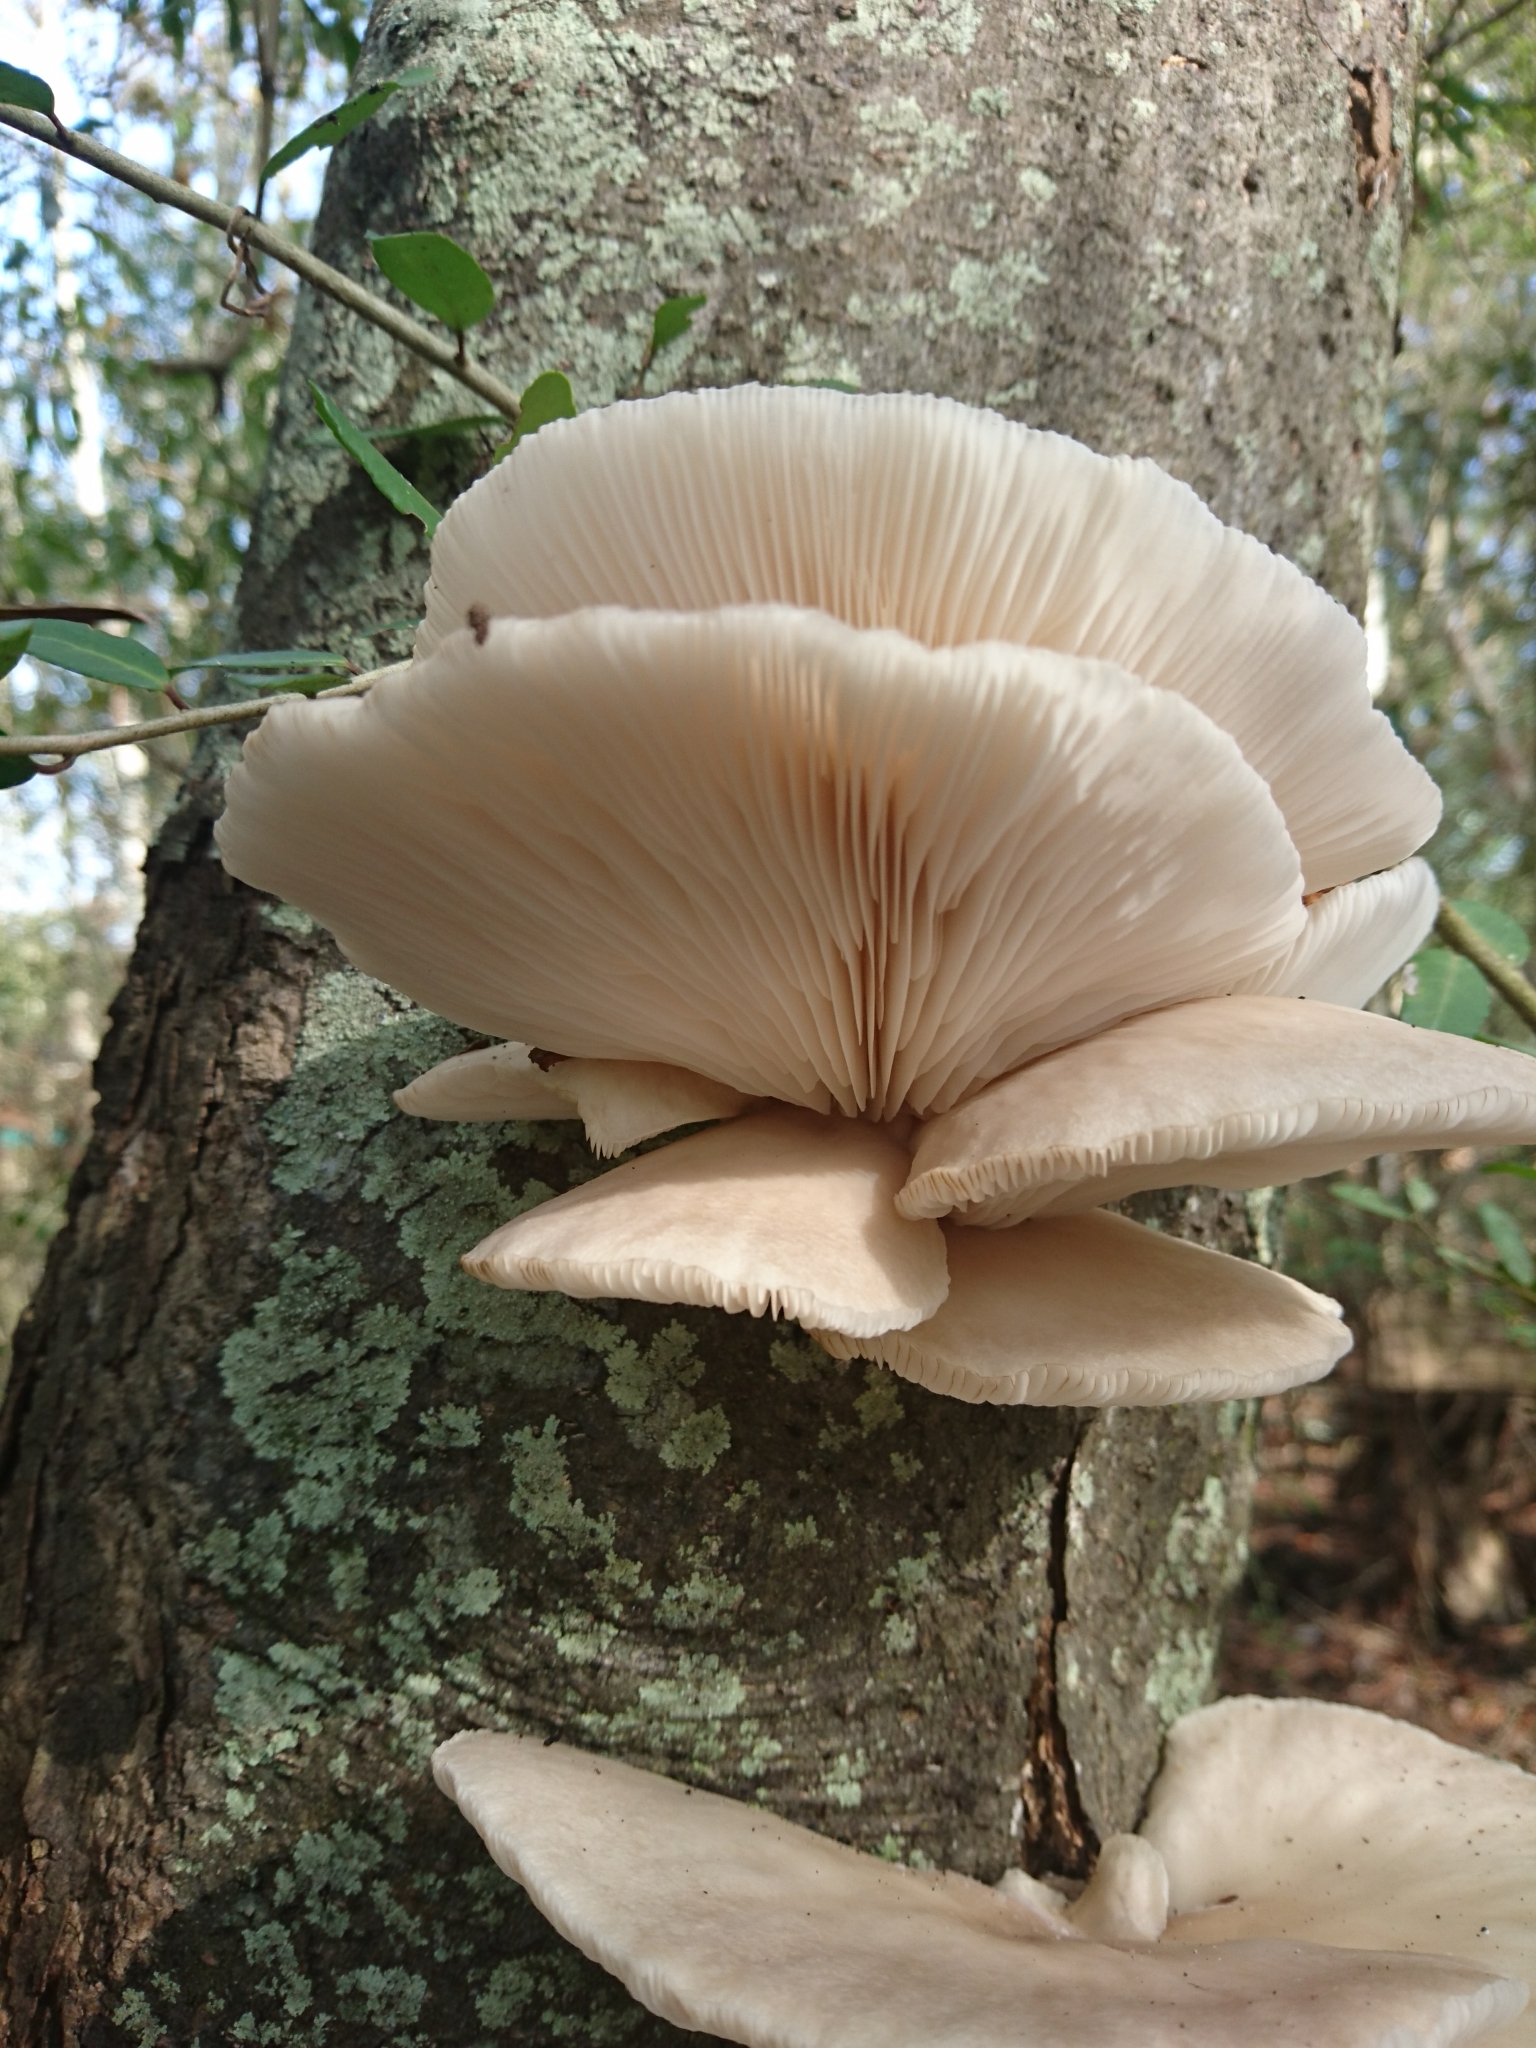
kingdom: Fungi
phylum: Basidiomycota
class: Agaricomycetes
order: Agaricales
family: Pleurotaceae
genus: Pleurotus
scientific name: Pleurotus ostreatus
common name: Oyster mushroom
